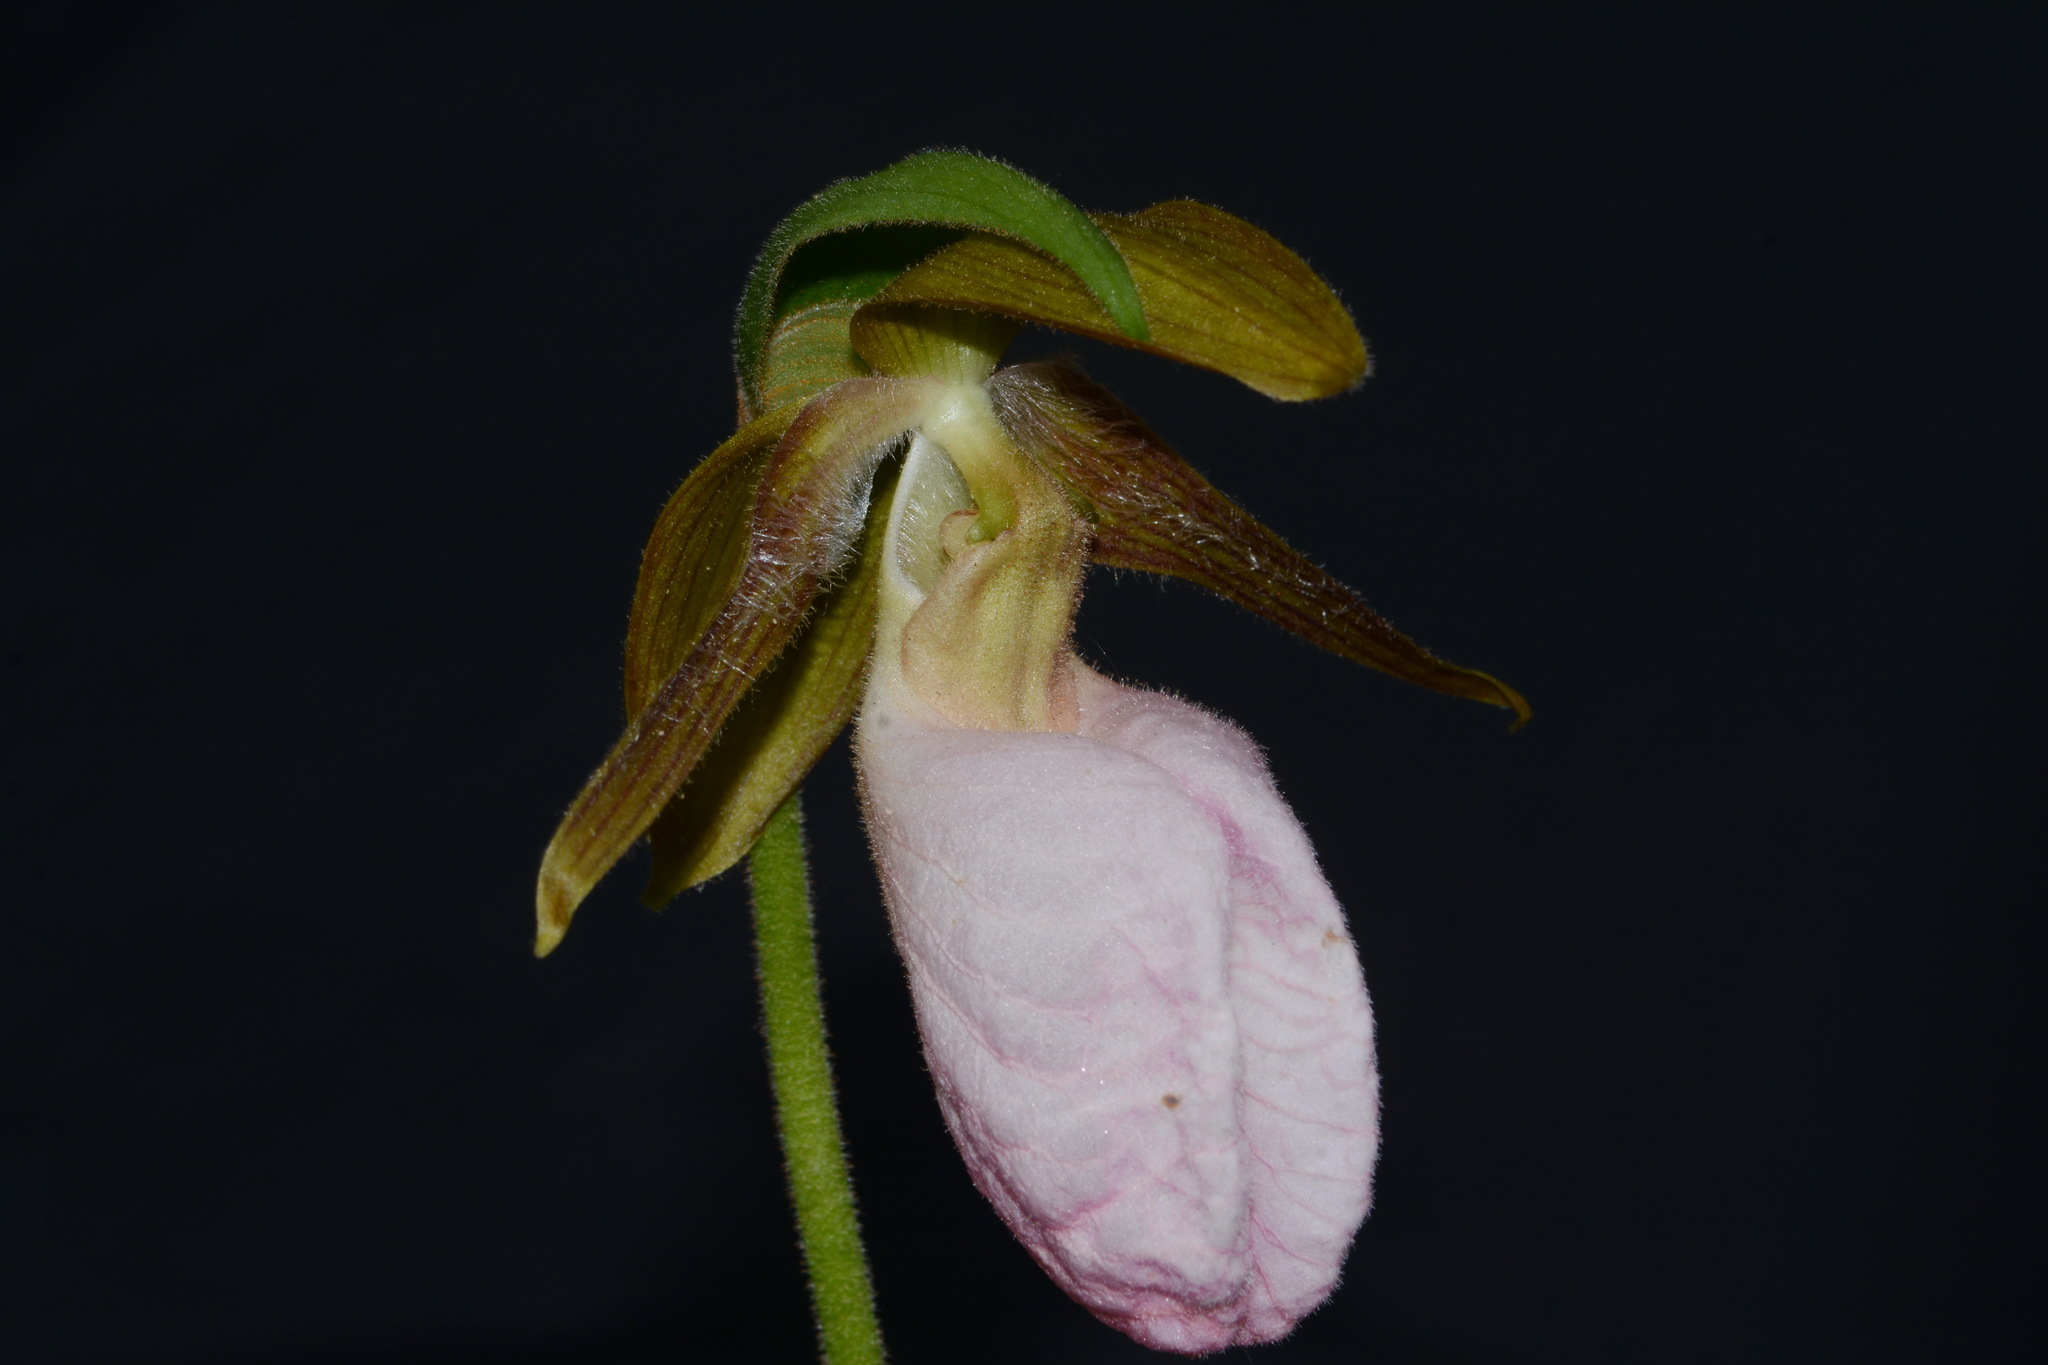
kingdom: Plantae
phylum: Tracheophyta
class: Liliopsida
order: Asparagales
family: Orchidaceae
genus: Cypripedium
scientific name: Cypripedium acaule
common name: Pink lady's-slipper
